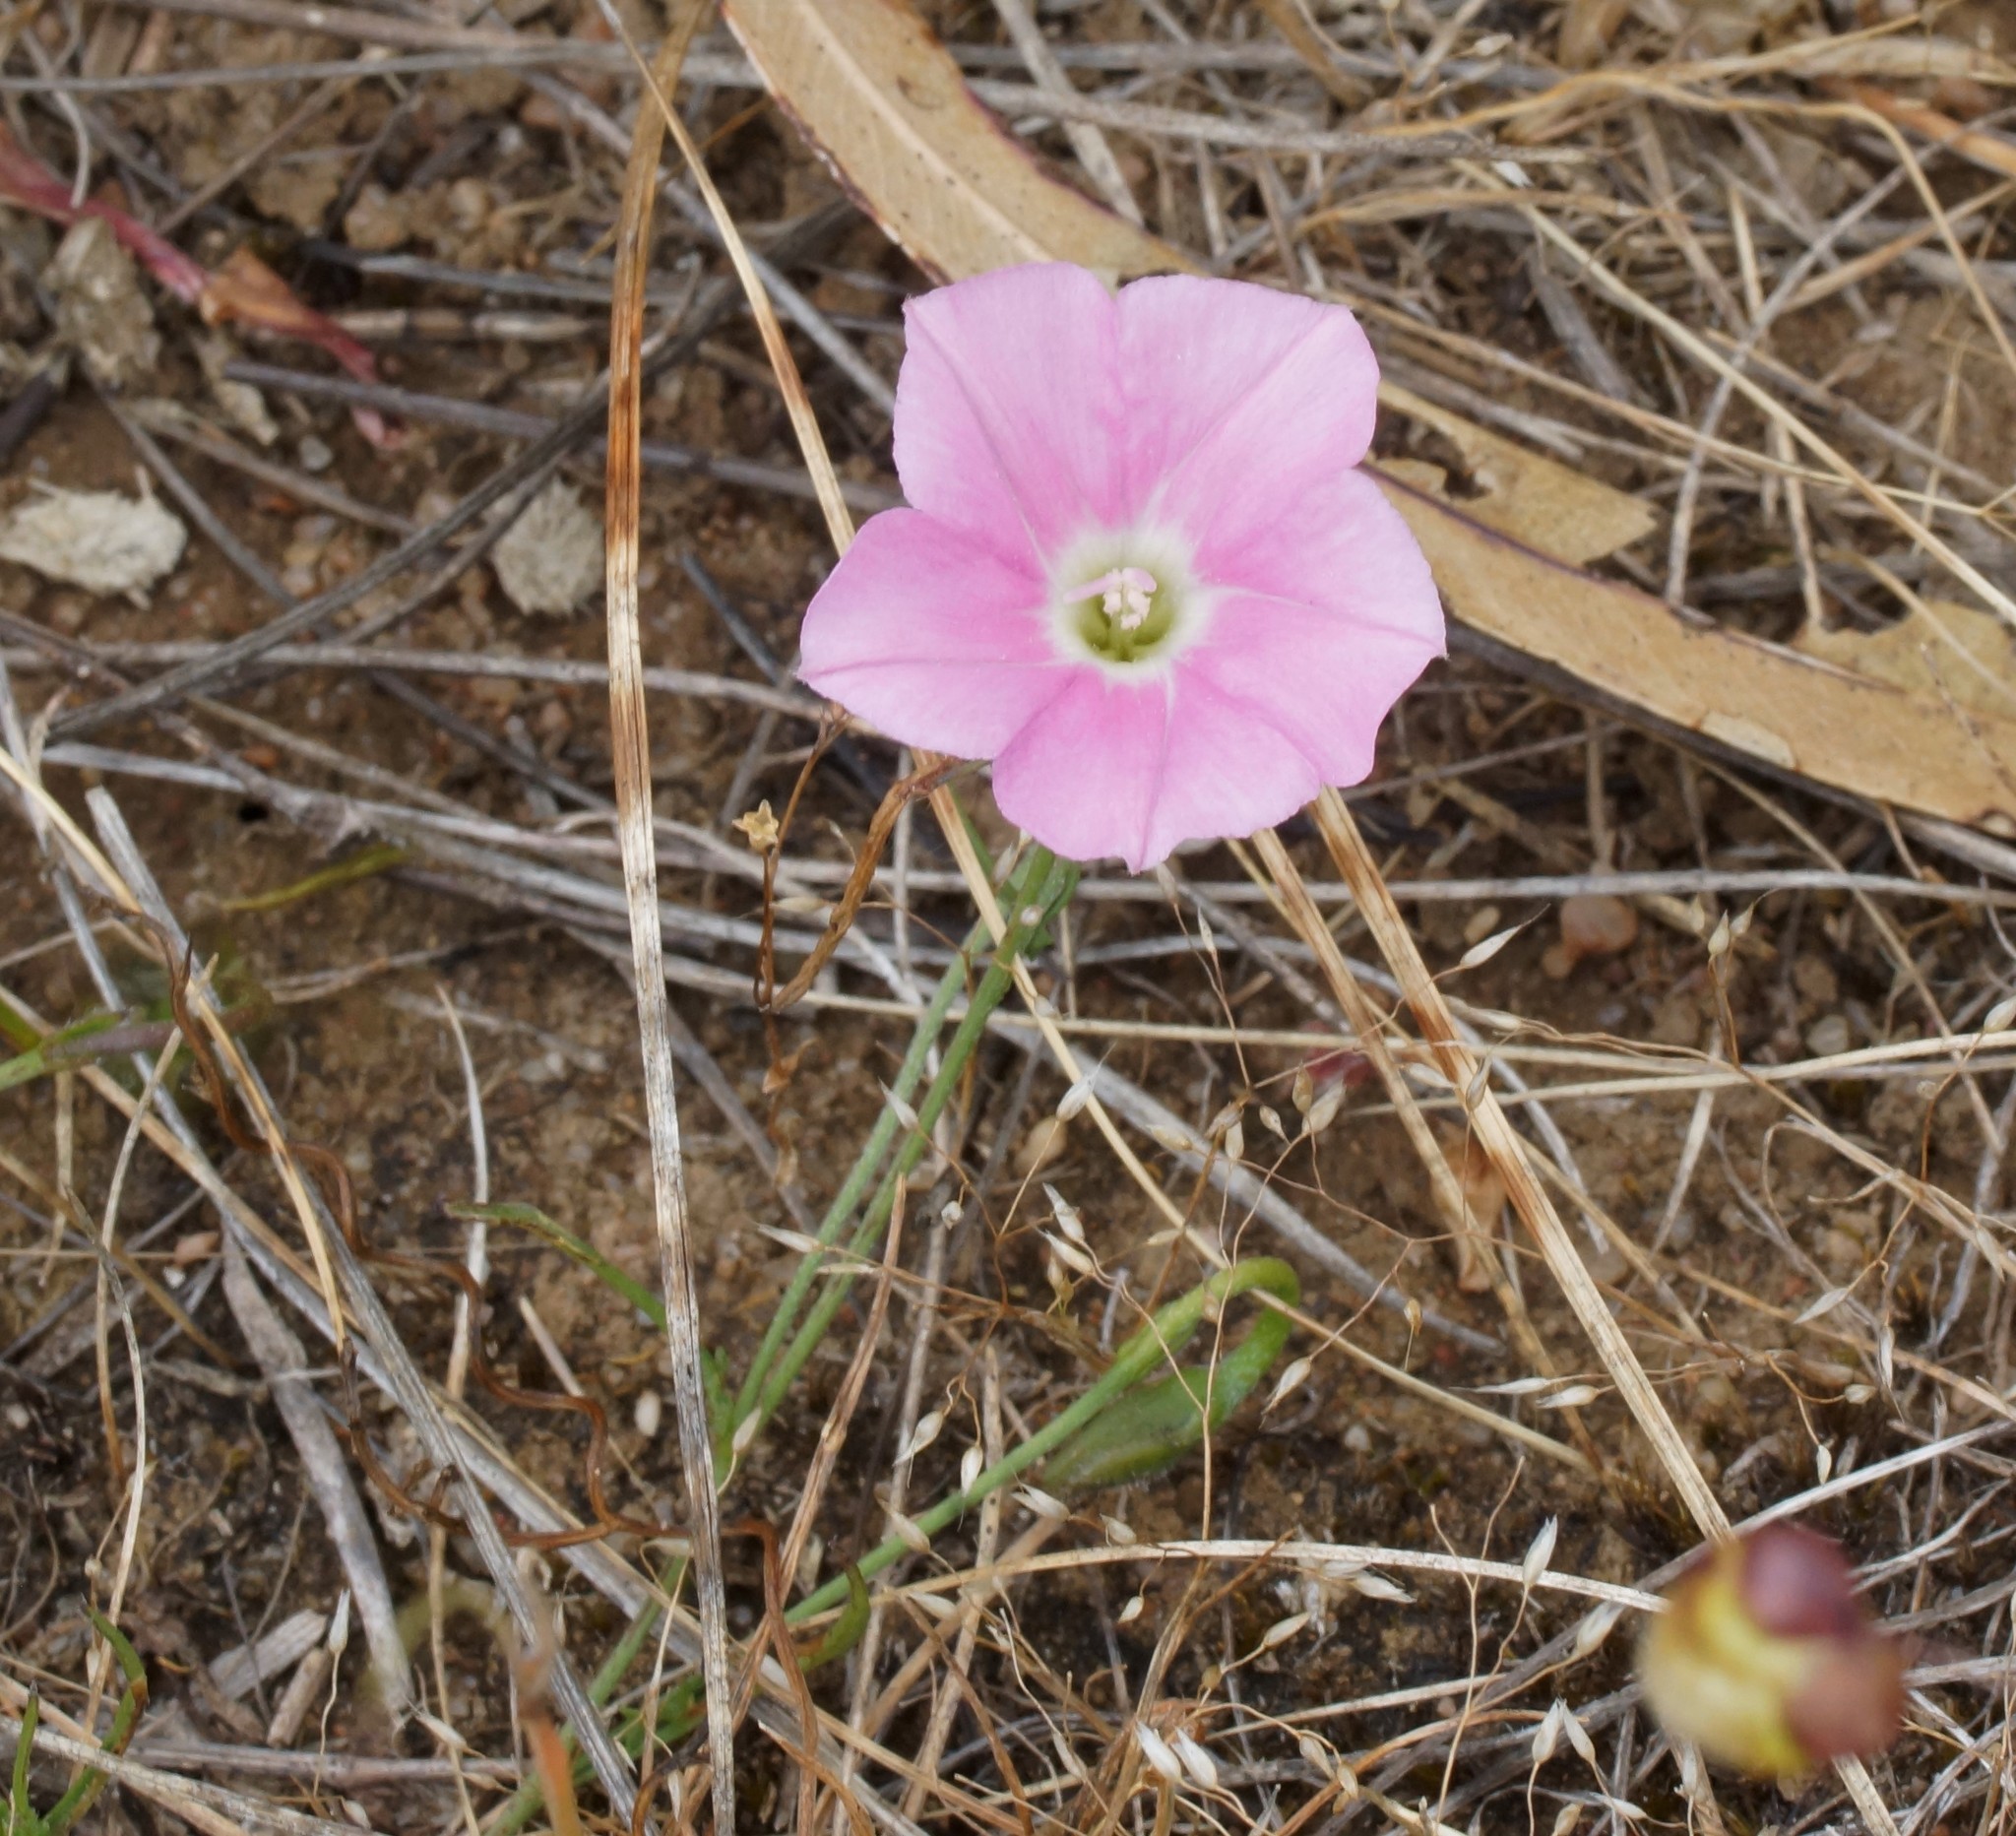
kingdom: Plantae
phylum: Tracheophyta
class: Magnoliopsida
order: Solanales
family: Convolvulaceae
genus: Convolvulus
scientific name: Convolvulus angustissimus
